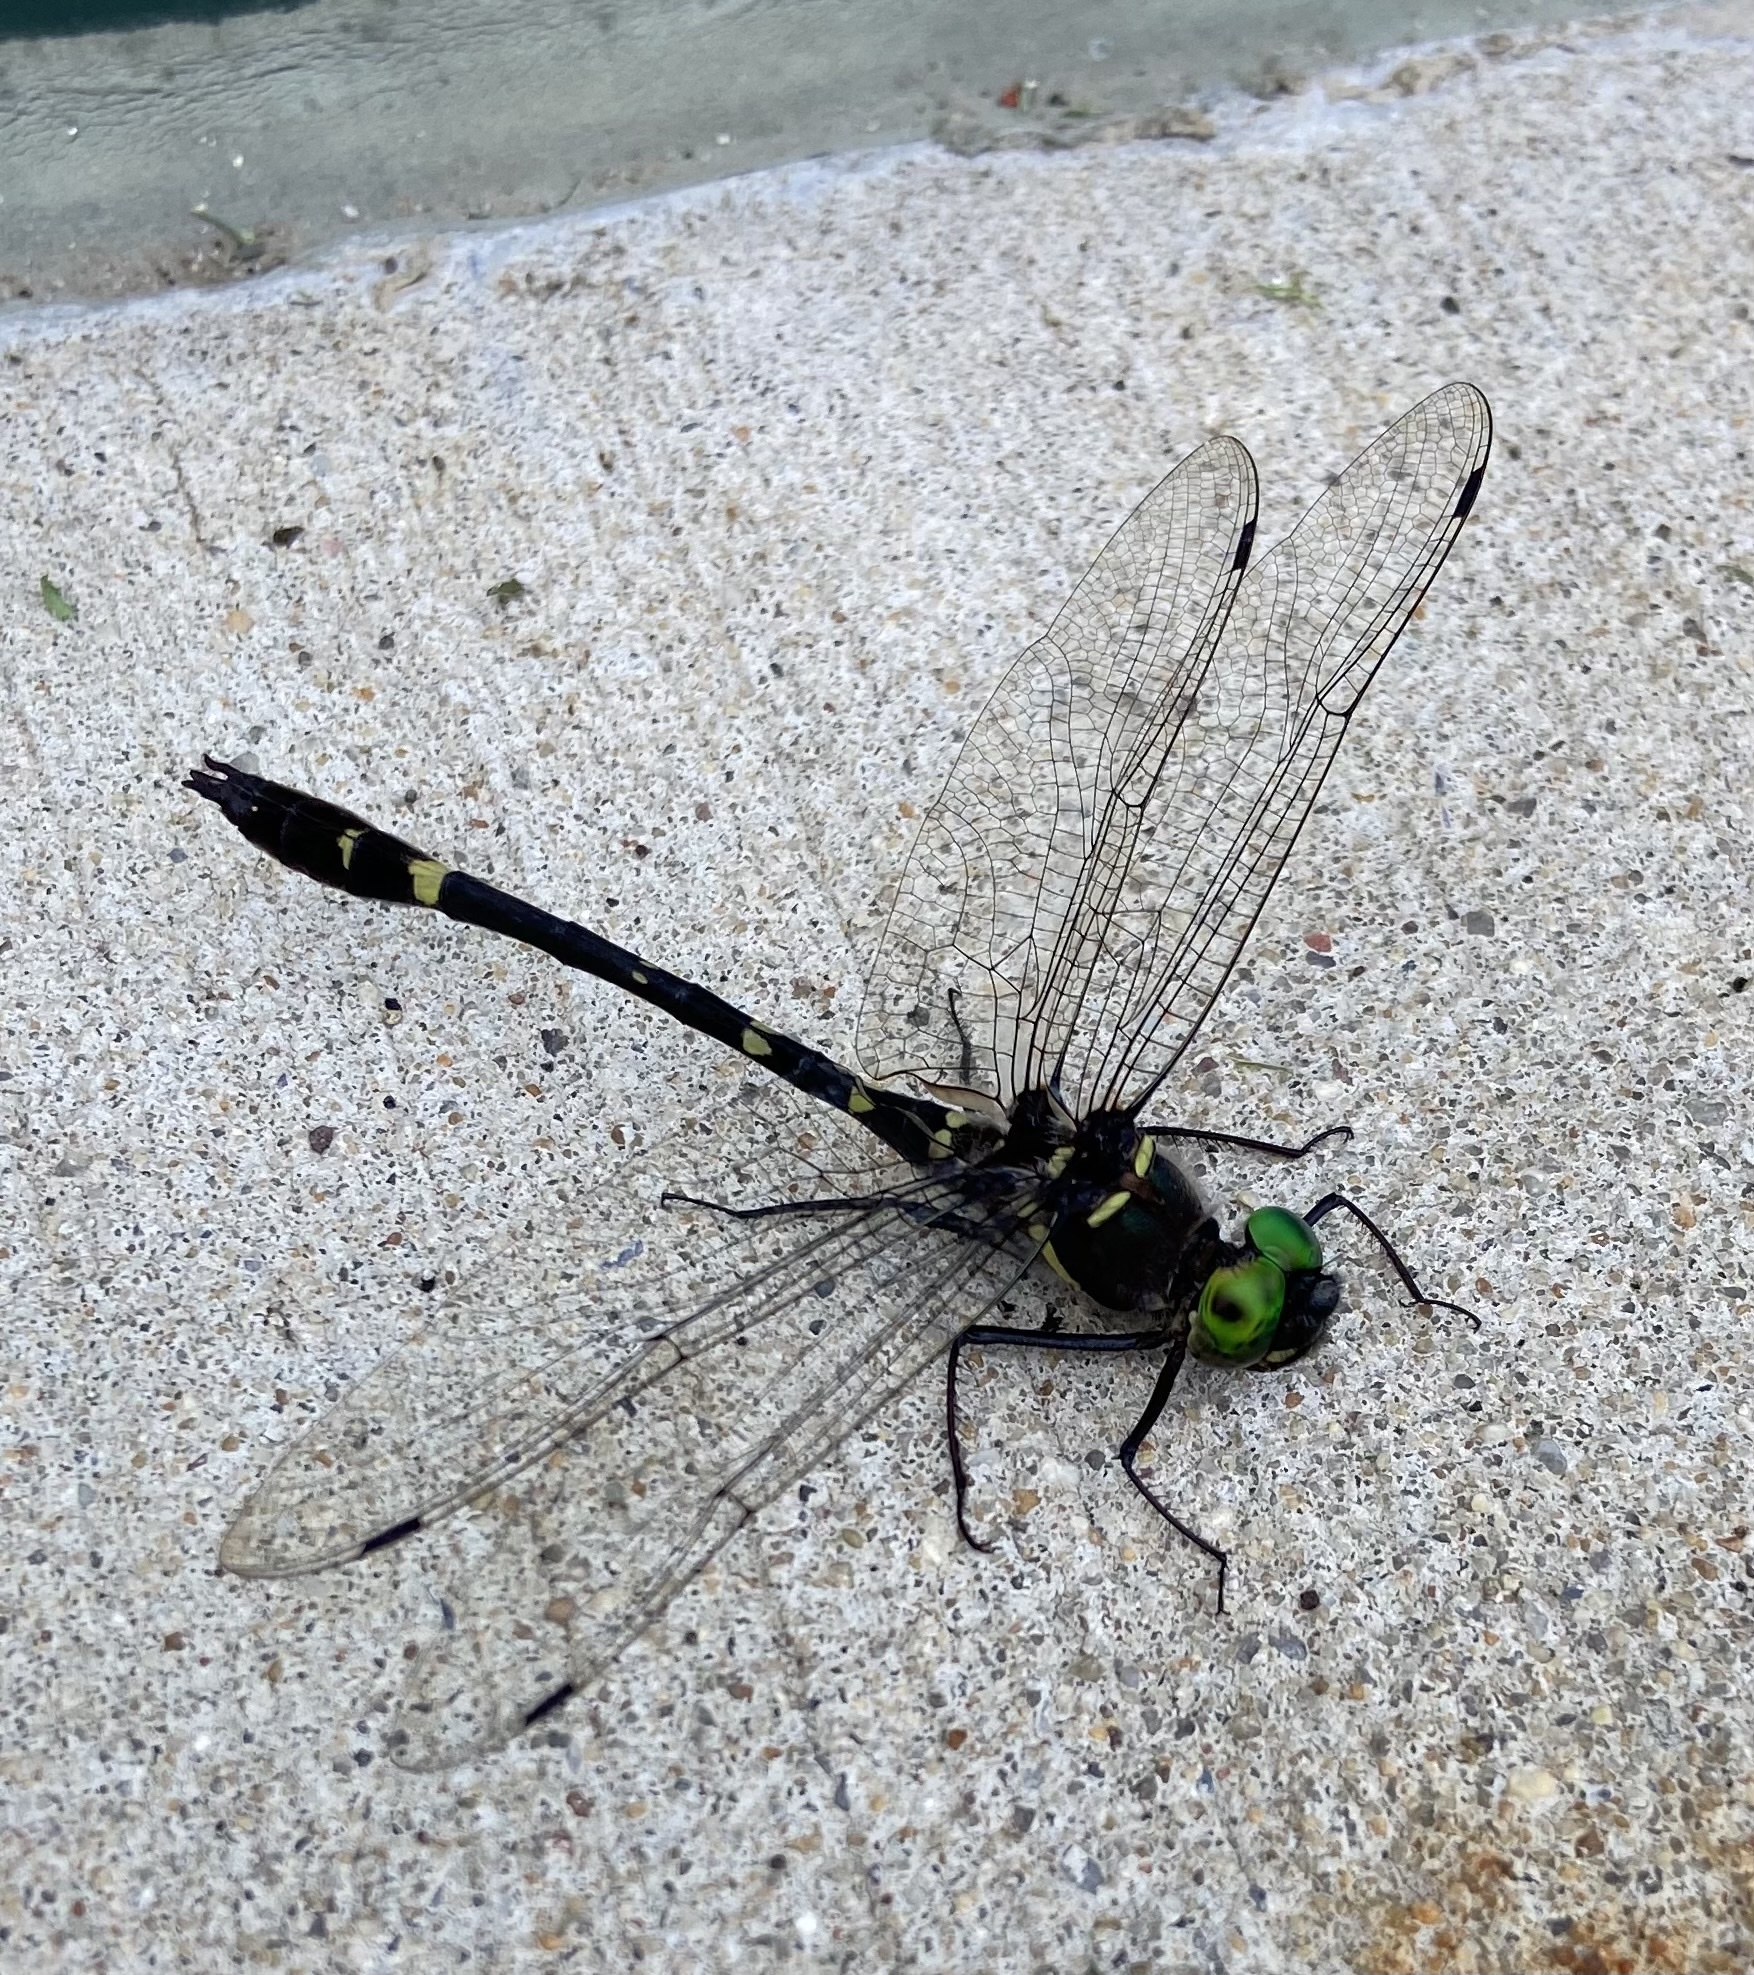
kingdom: Animalia
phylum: Arthropoda
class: Insecta
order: Odonata
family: Macromiidae
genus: Macromia
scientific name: Macromia illinoiensis
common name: Swift river cruiser
